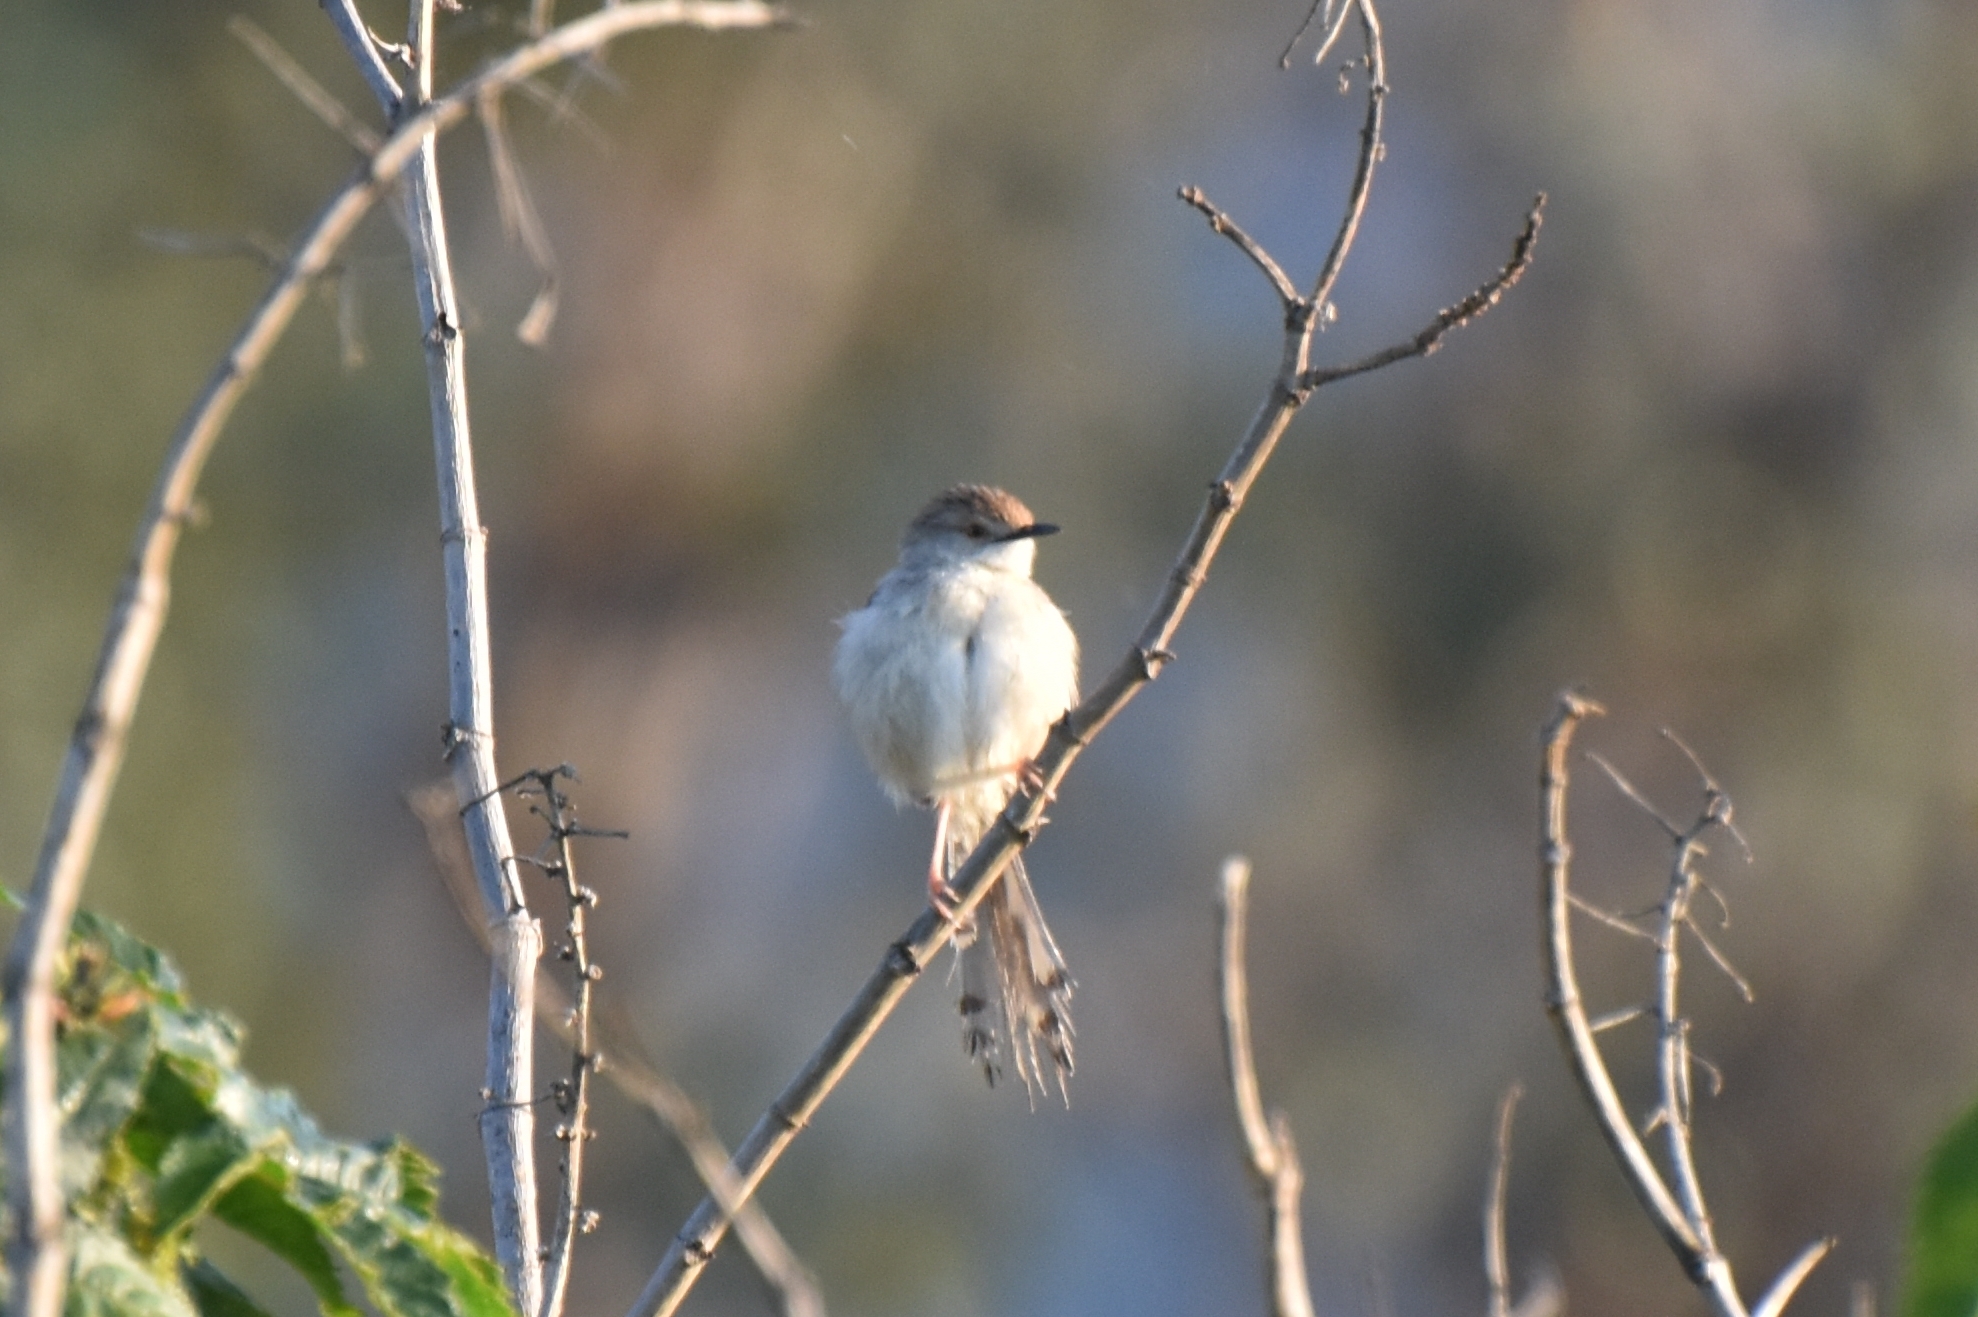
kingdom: Animalia
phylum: Chordata
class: Aves
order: Passeriformes
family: Cisticolidae
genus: Prinia
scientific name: Prinia gracilis
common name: Graceful prinia
